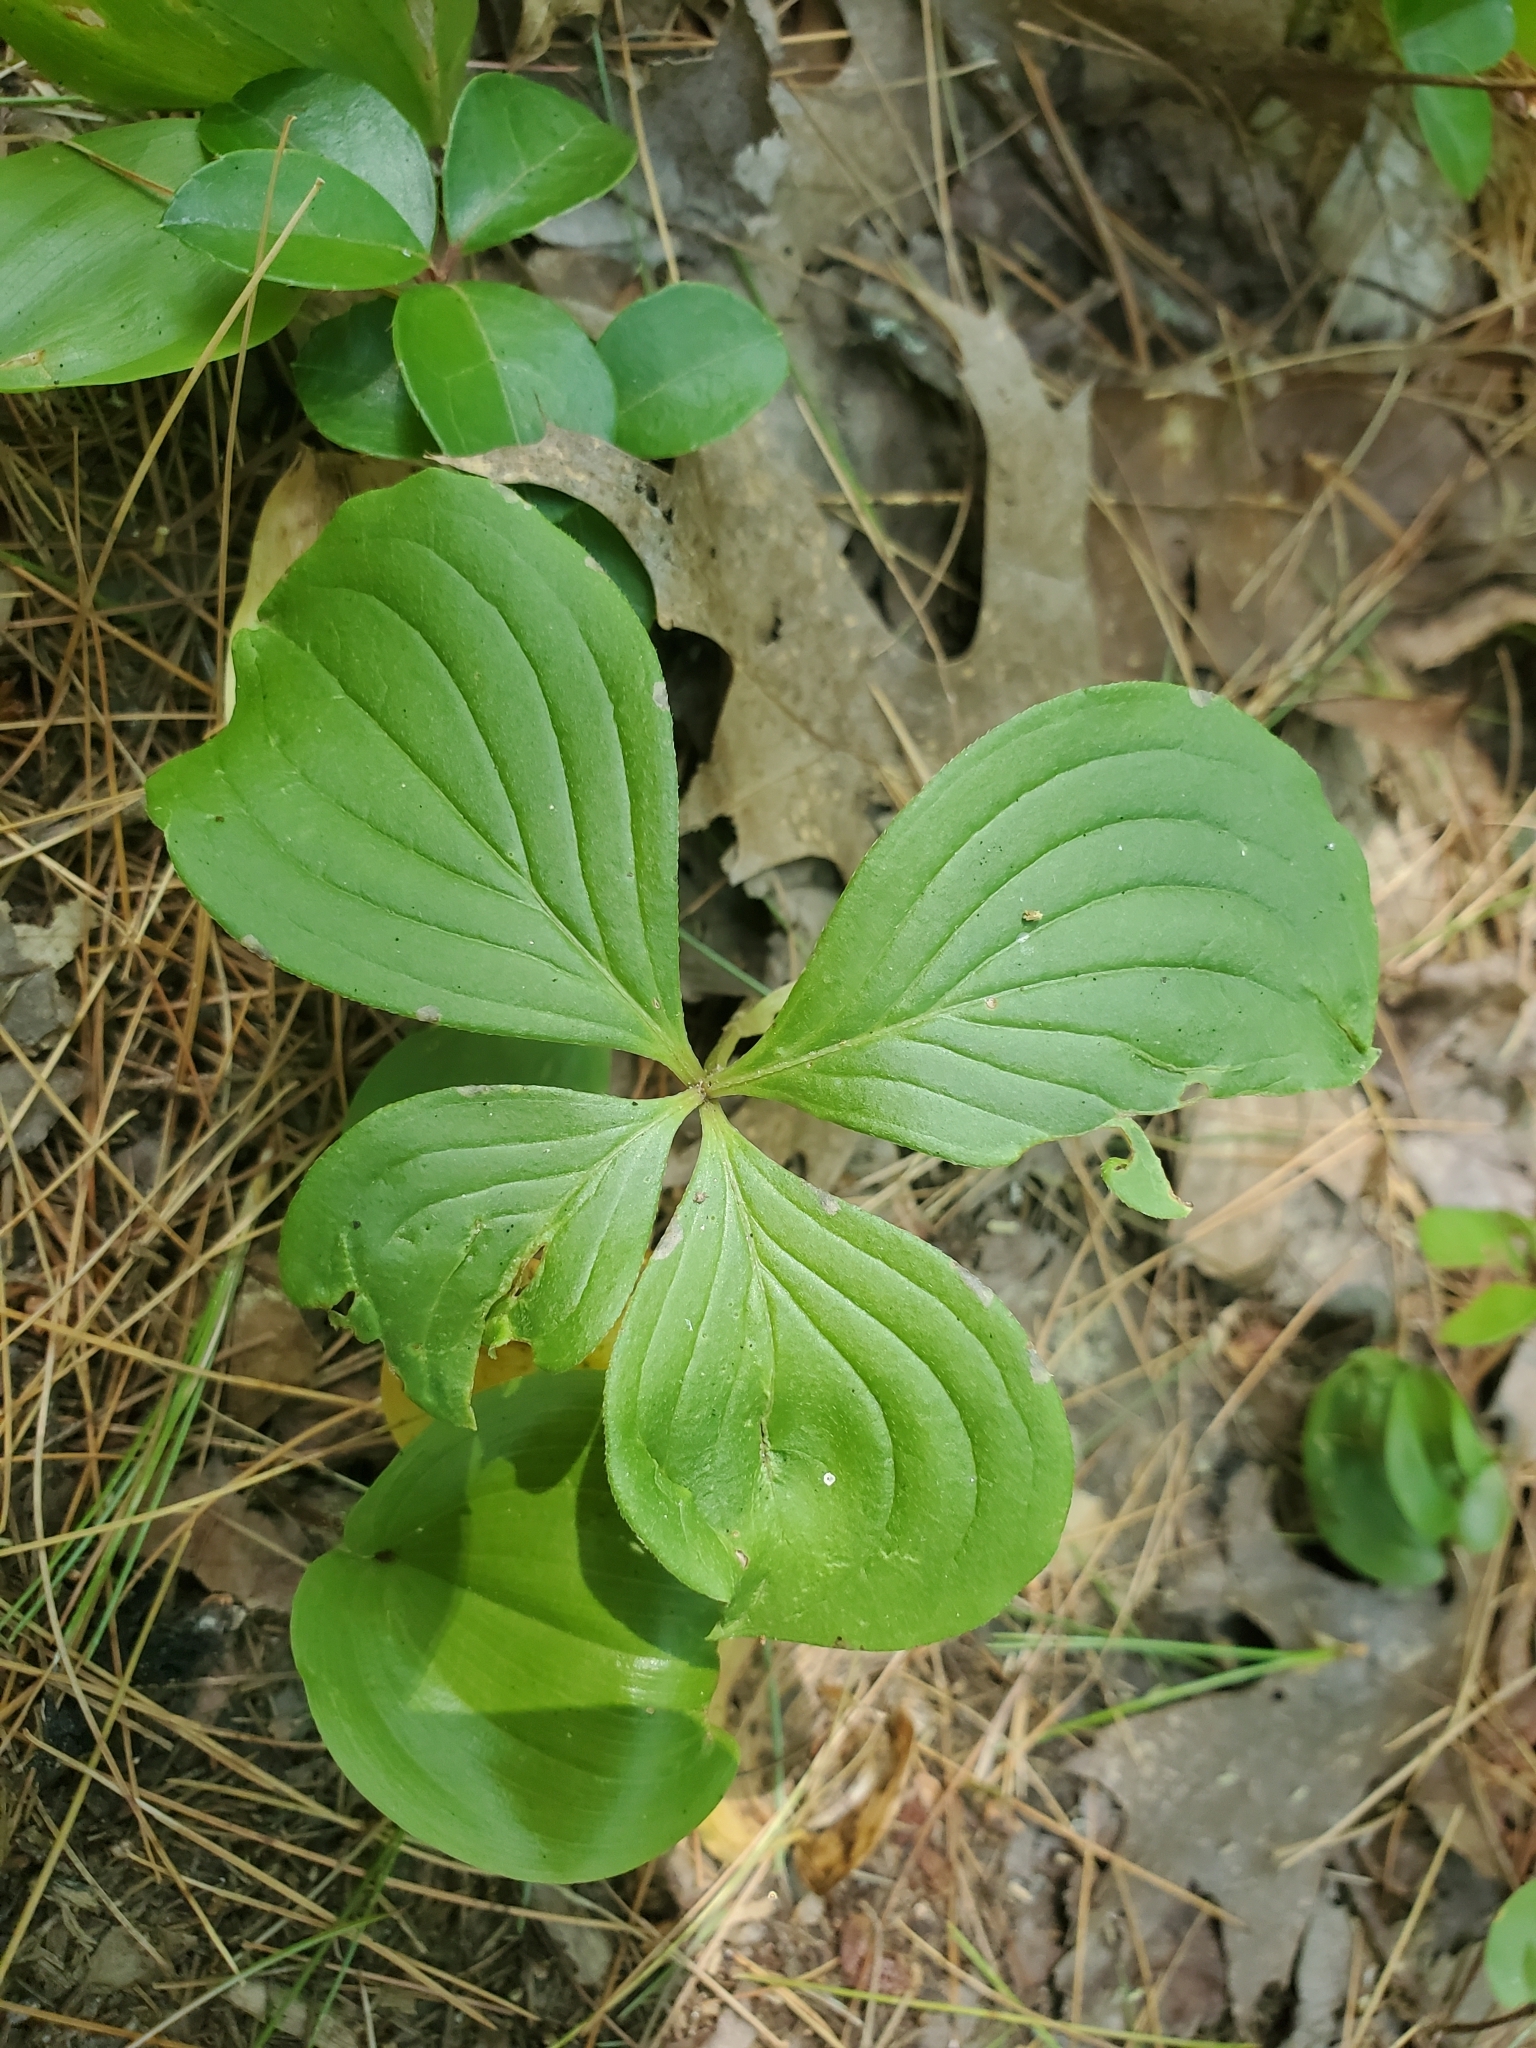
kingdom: Plantae
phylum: Tracheophyta
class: Magnoliopsida
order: Cornales
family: Cornaceae
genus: Cornus
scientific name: Cornus canadensis
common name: Creeping dogwood
